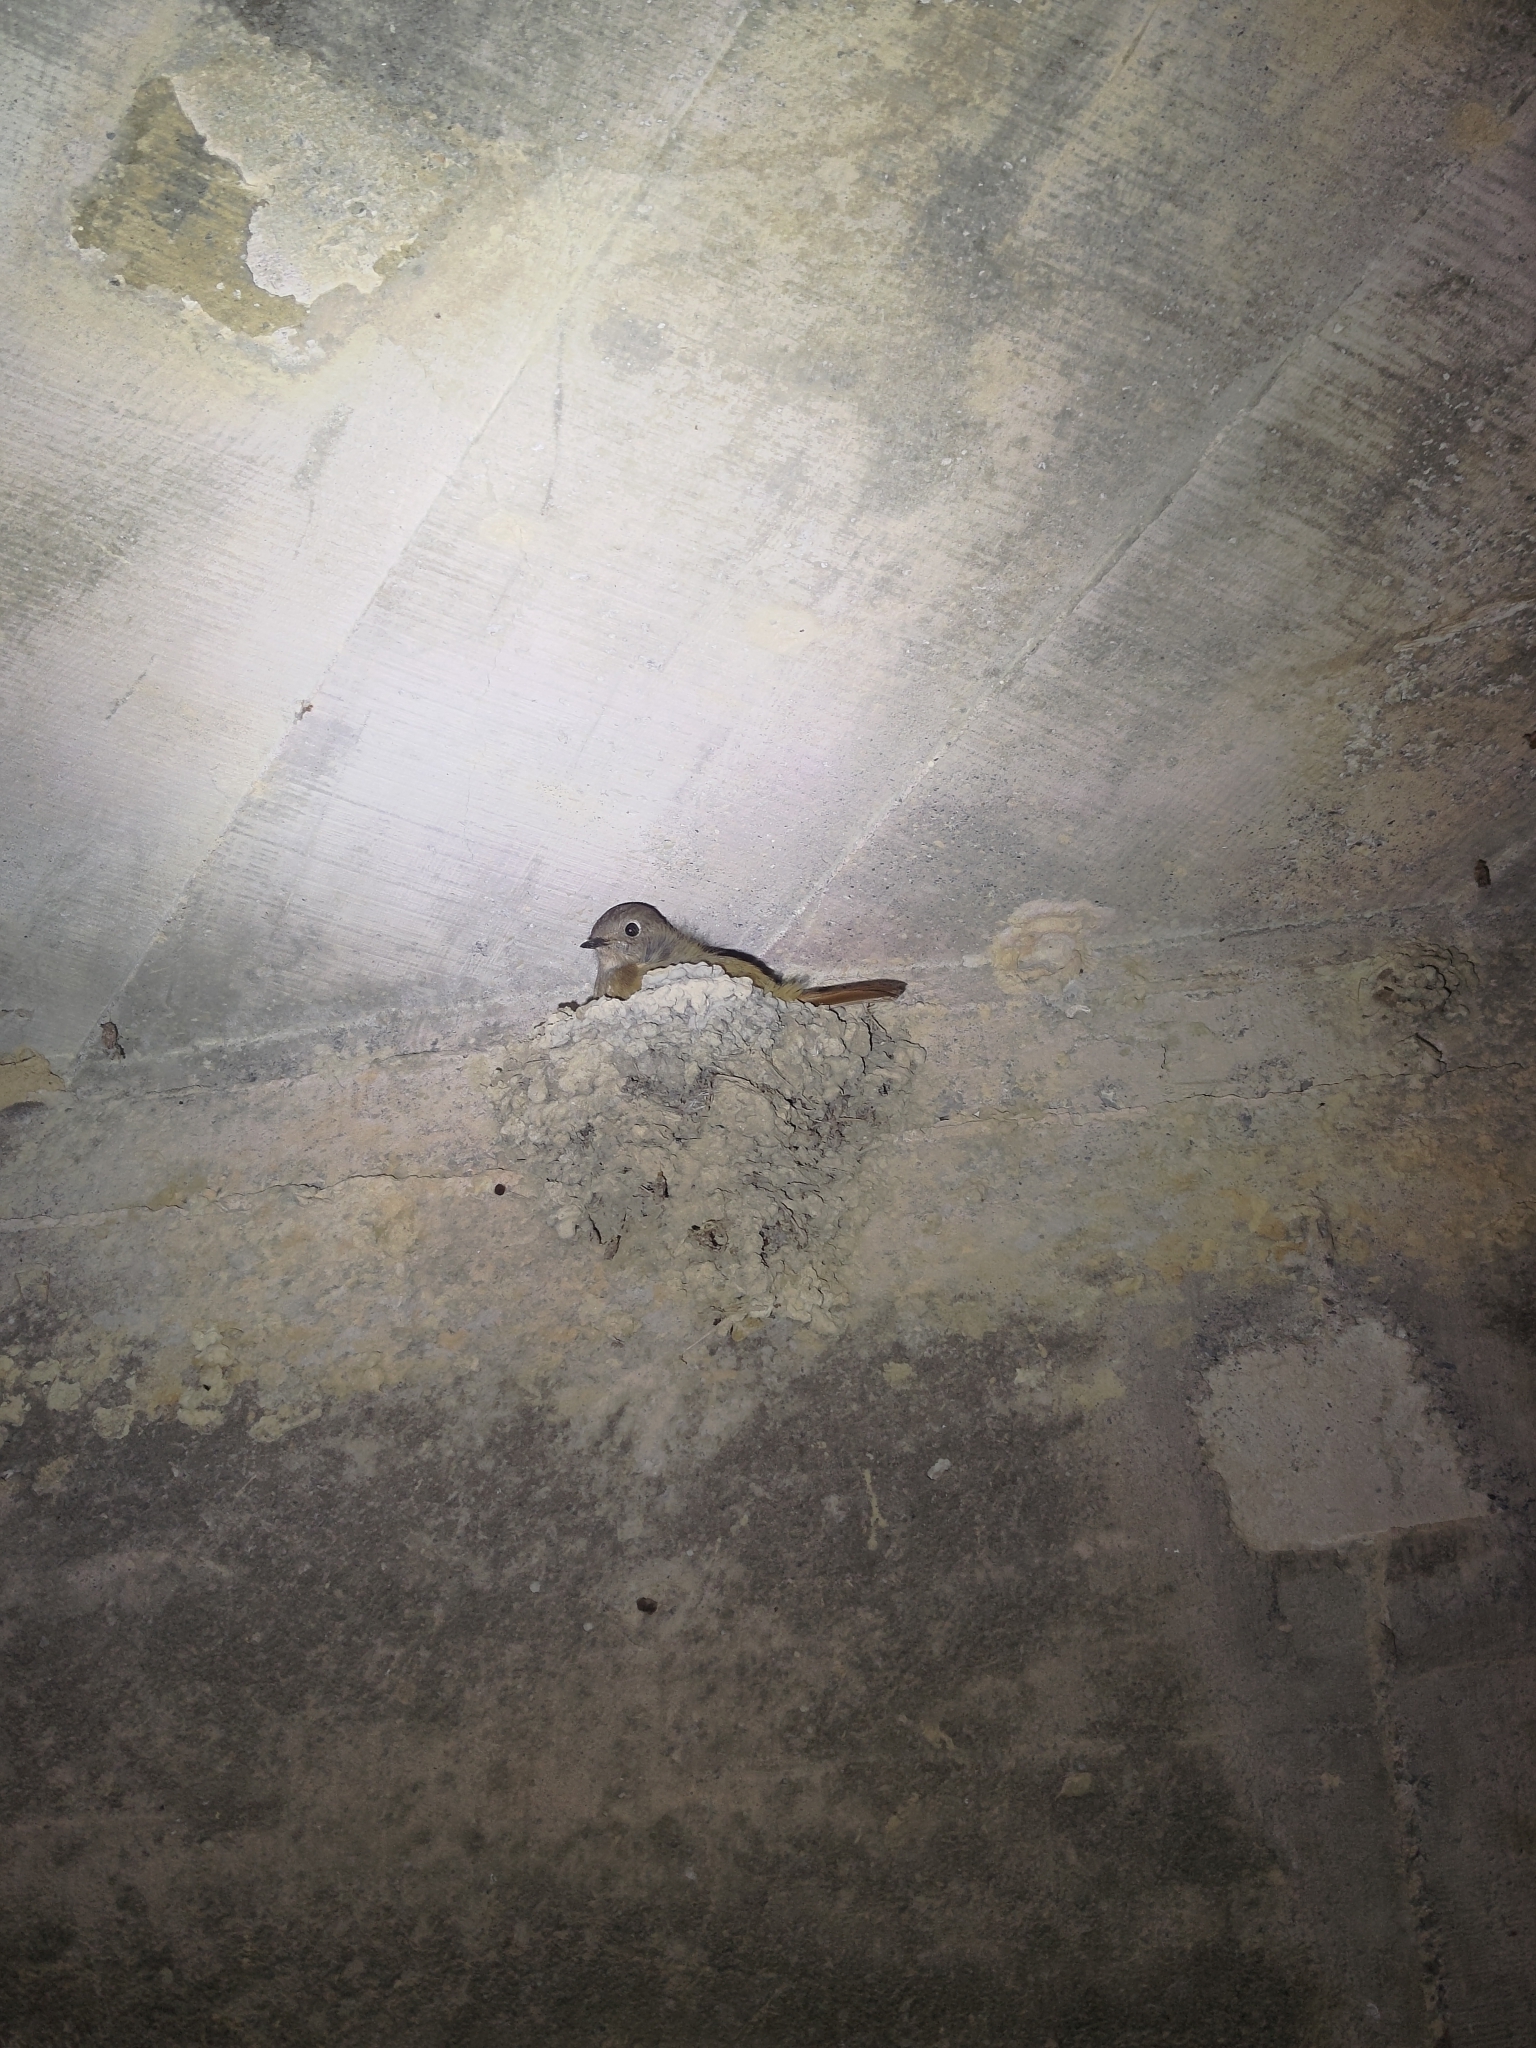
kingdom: Animalia
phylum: Chordata
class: Aves
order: Passeriformes
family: Muscicapidae
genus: Phoenicurus
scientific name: Phoenicurus auroreus
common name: Daurian redstart
